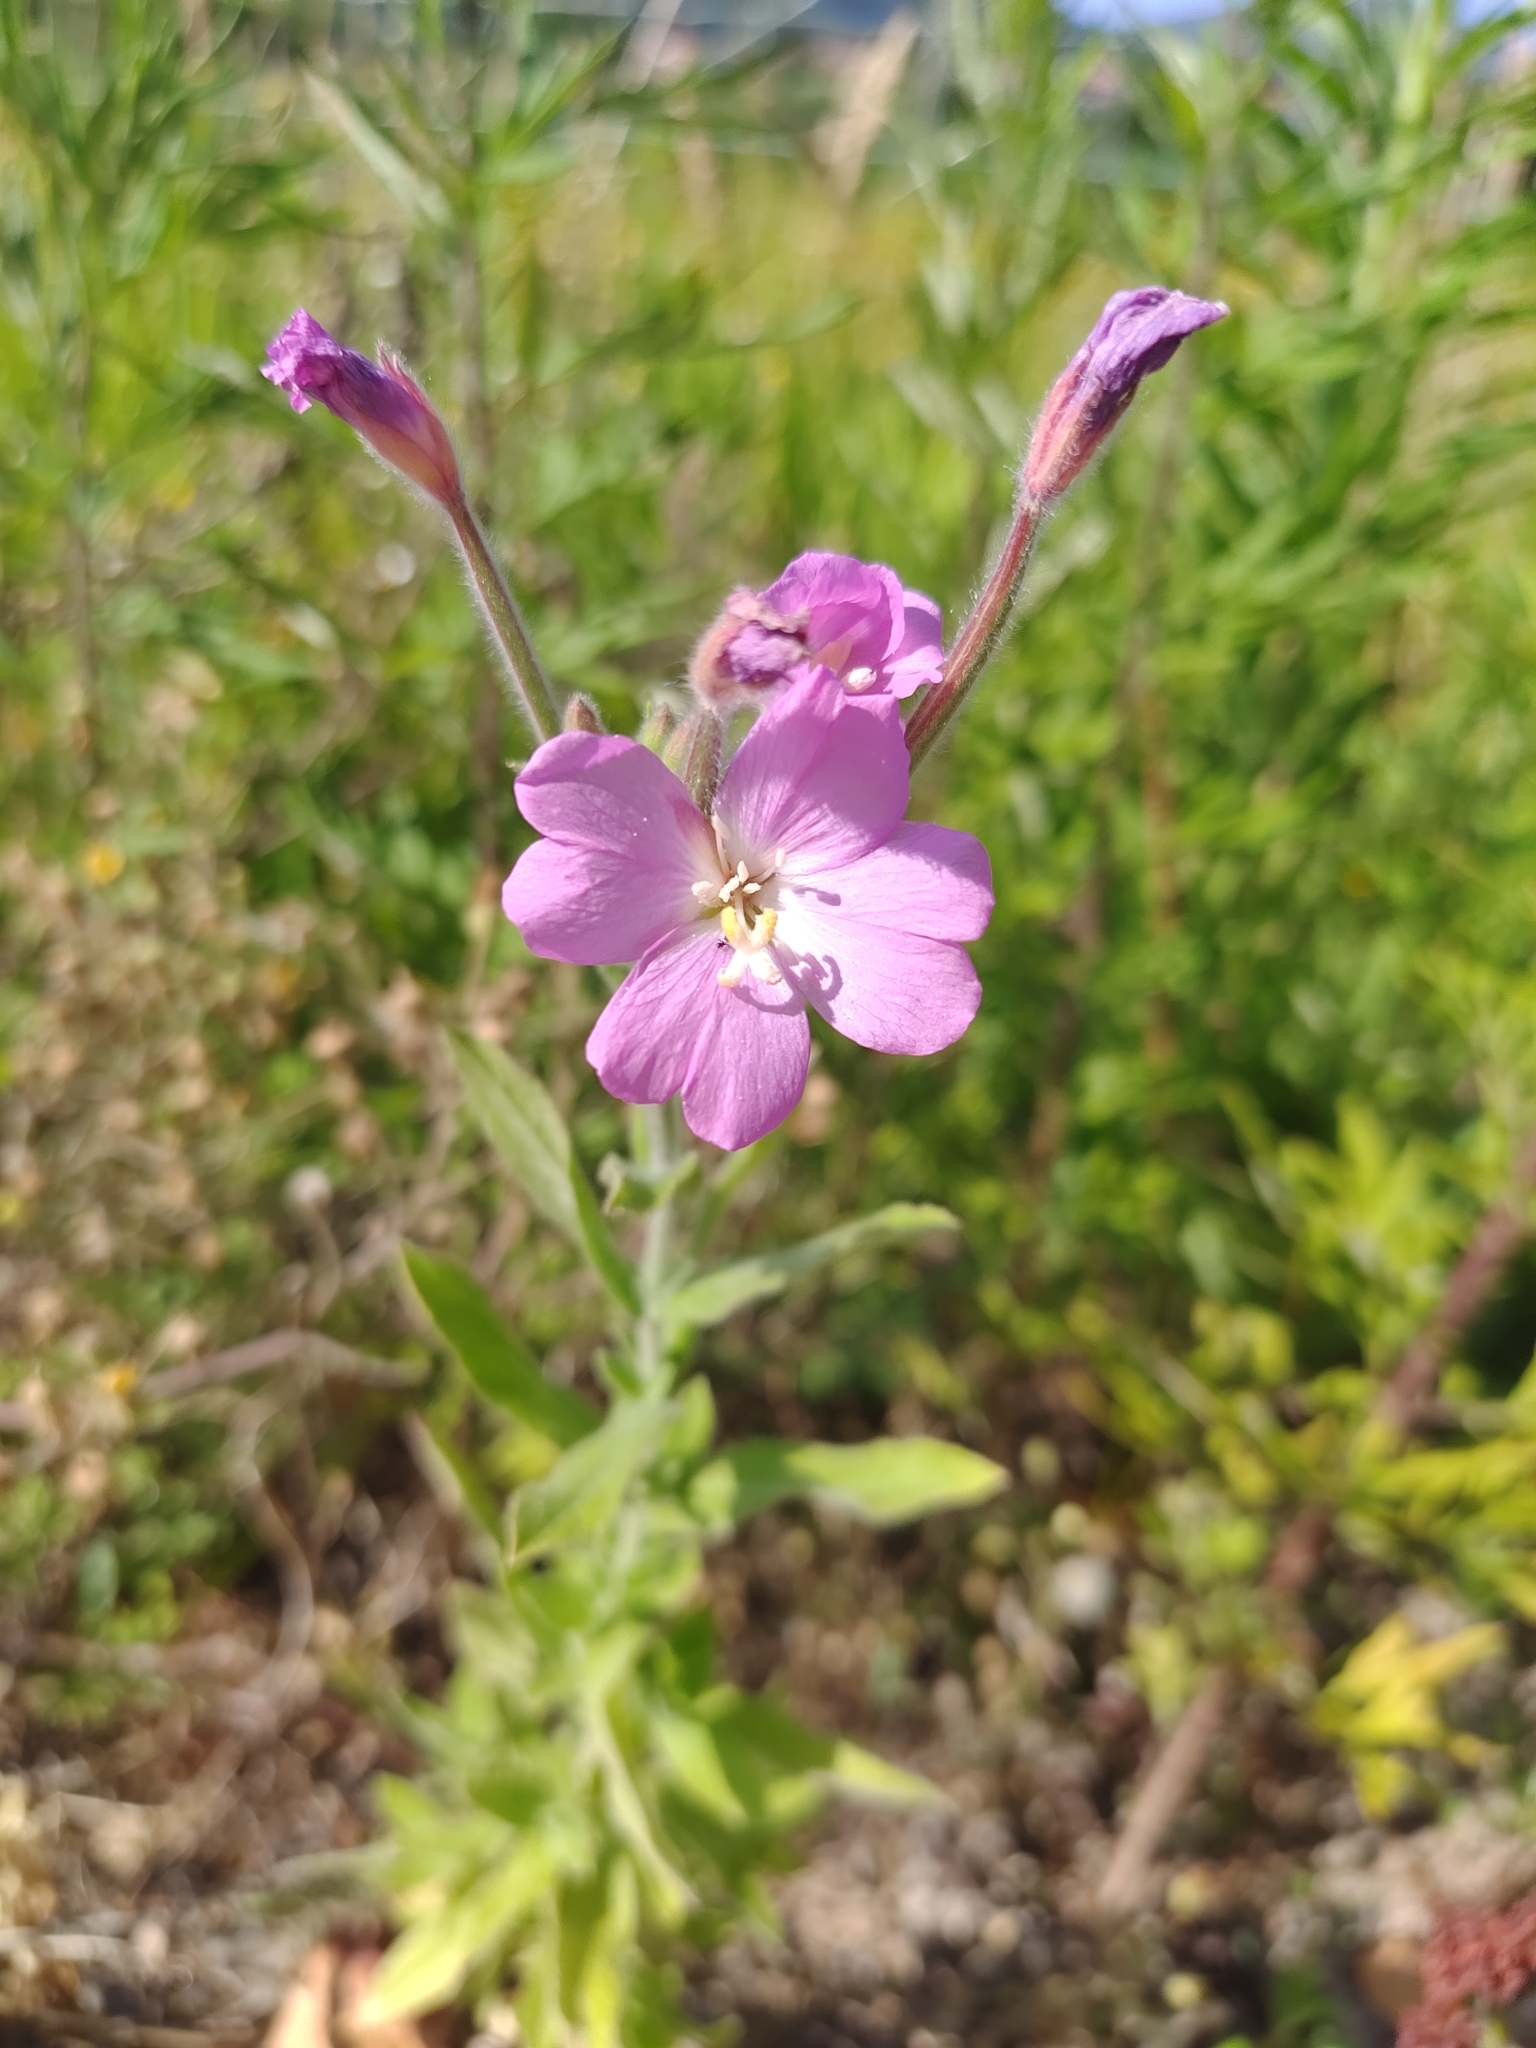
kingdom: Plantae
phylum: Tracheophyta
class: Magnoliopsida
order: Myrtales
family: Onagraceae
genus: Epilobium
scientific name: Epilobium hirsutum
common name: Great willowherb
